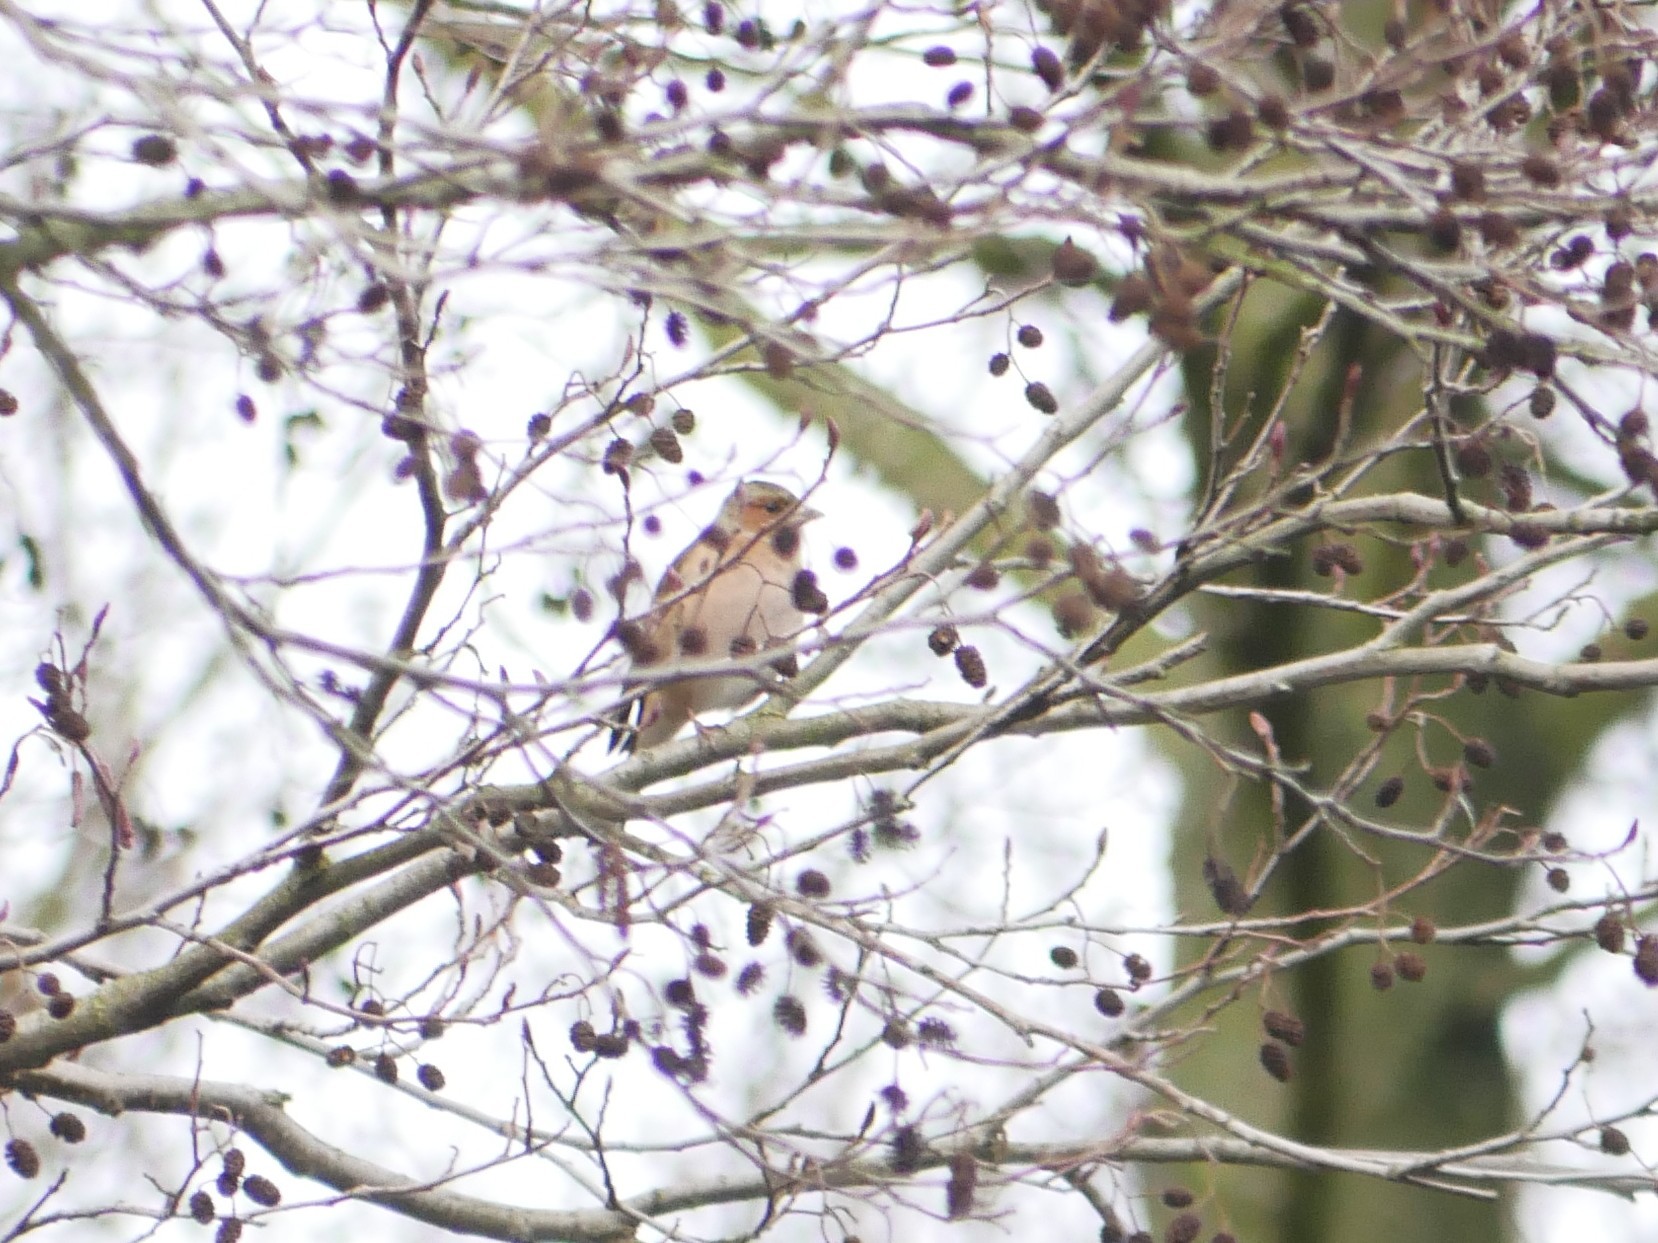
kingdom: Animalia
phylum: Chordata
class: Aves
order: Passeriformes
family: Fringillidae
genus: Fringilla
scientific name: Fringilla coelebs
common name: Common chaffinch
